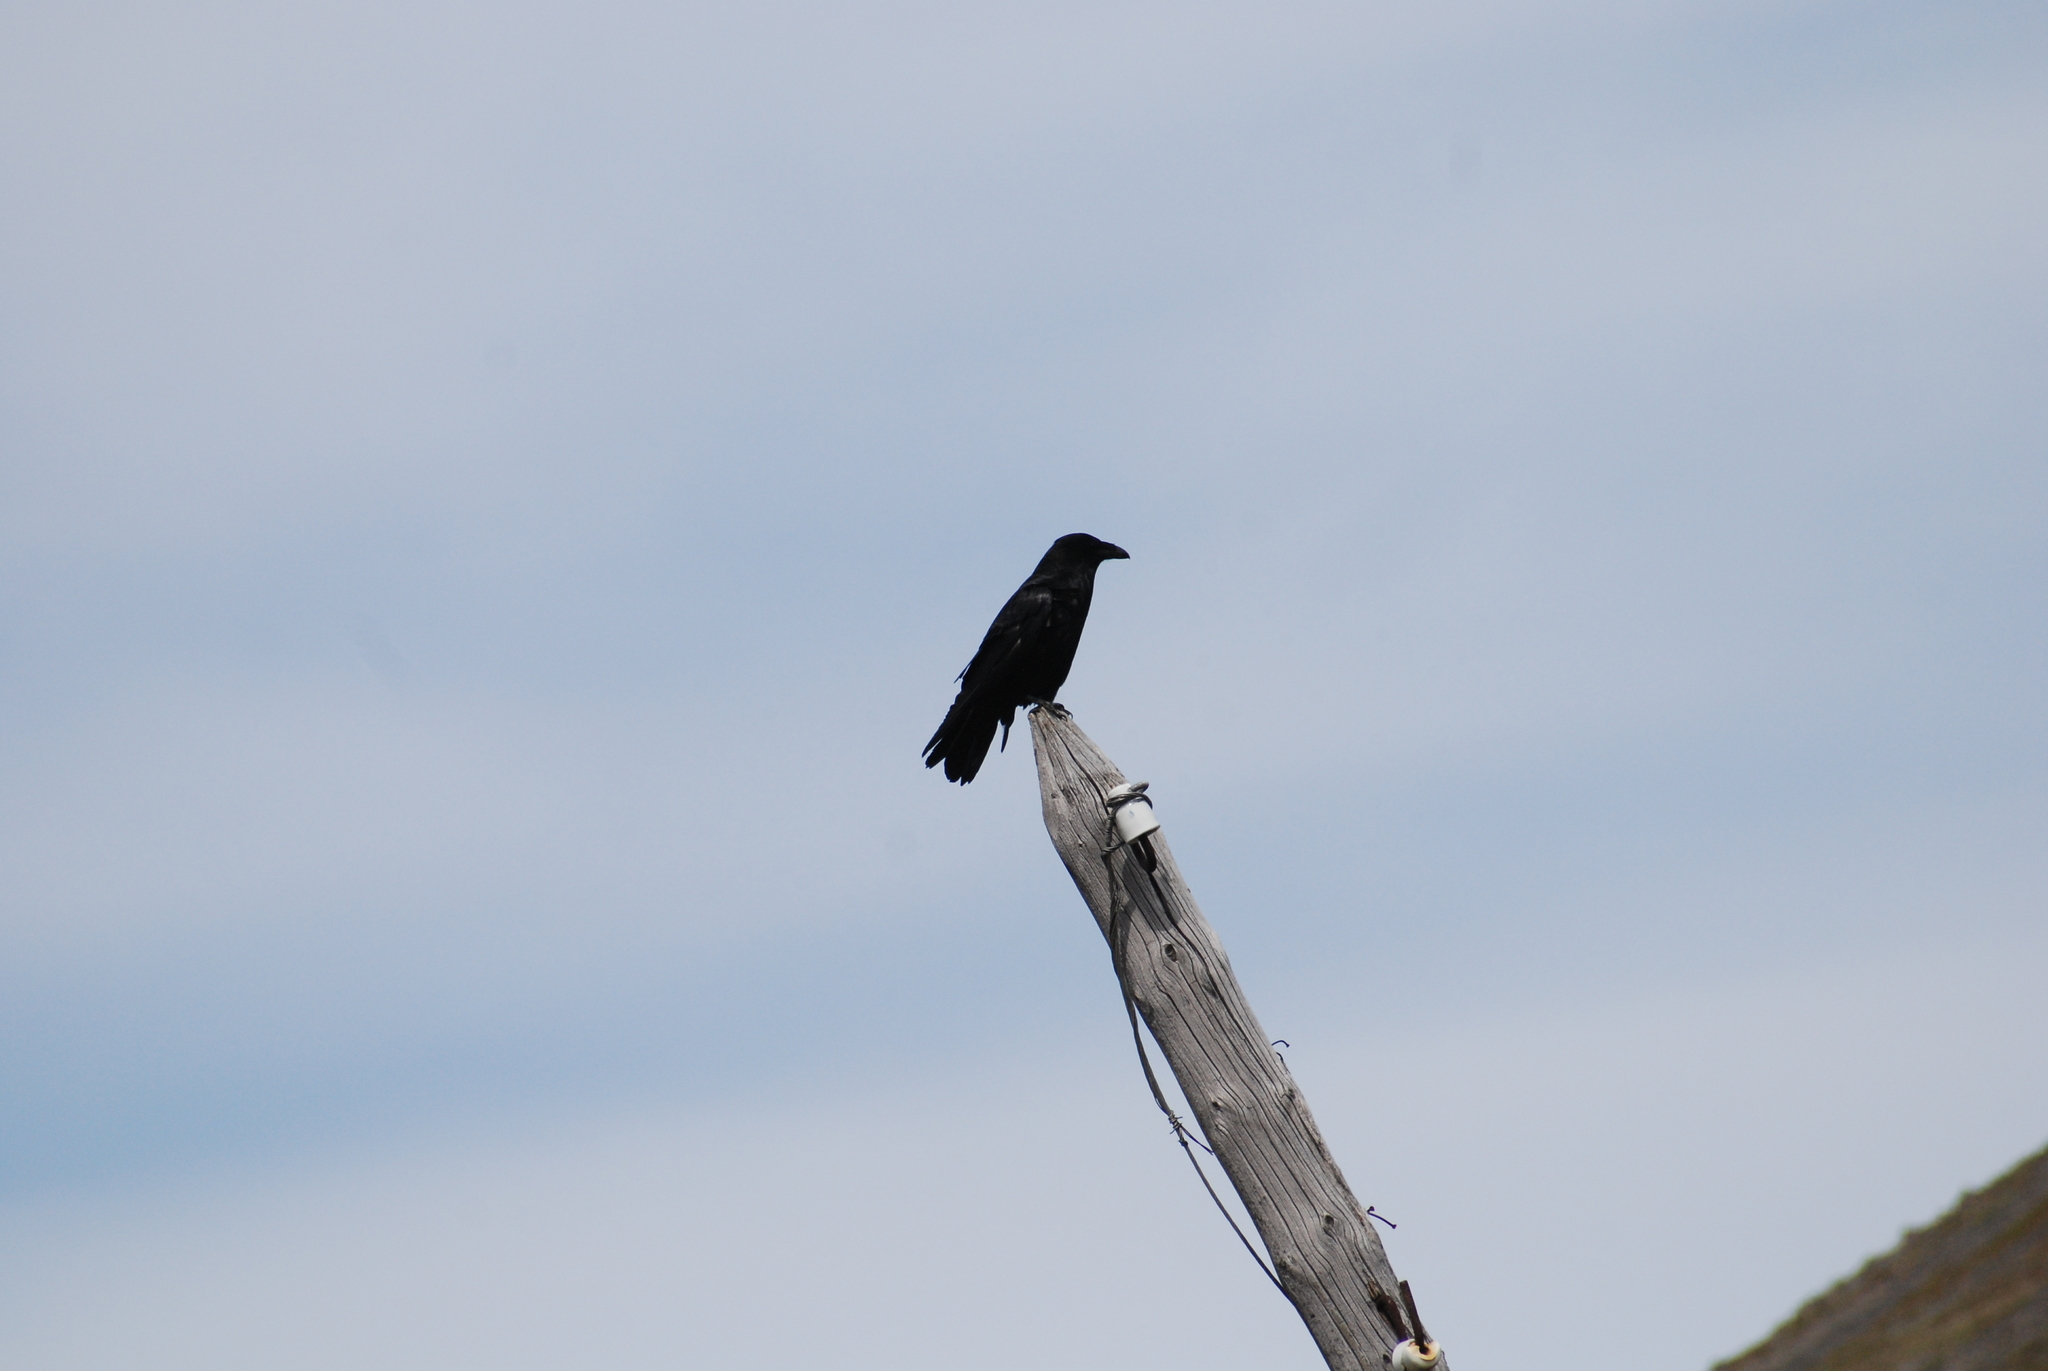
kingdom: Animalia
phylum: Chordata
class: Aves
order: Passeriformes
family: Corvidae
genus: Corvus
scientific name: Corvus corax
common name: Common raven
